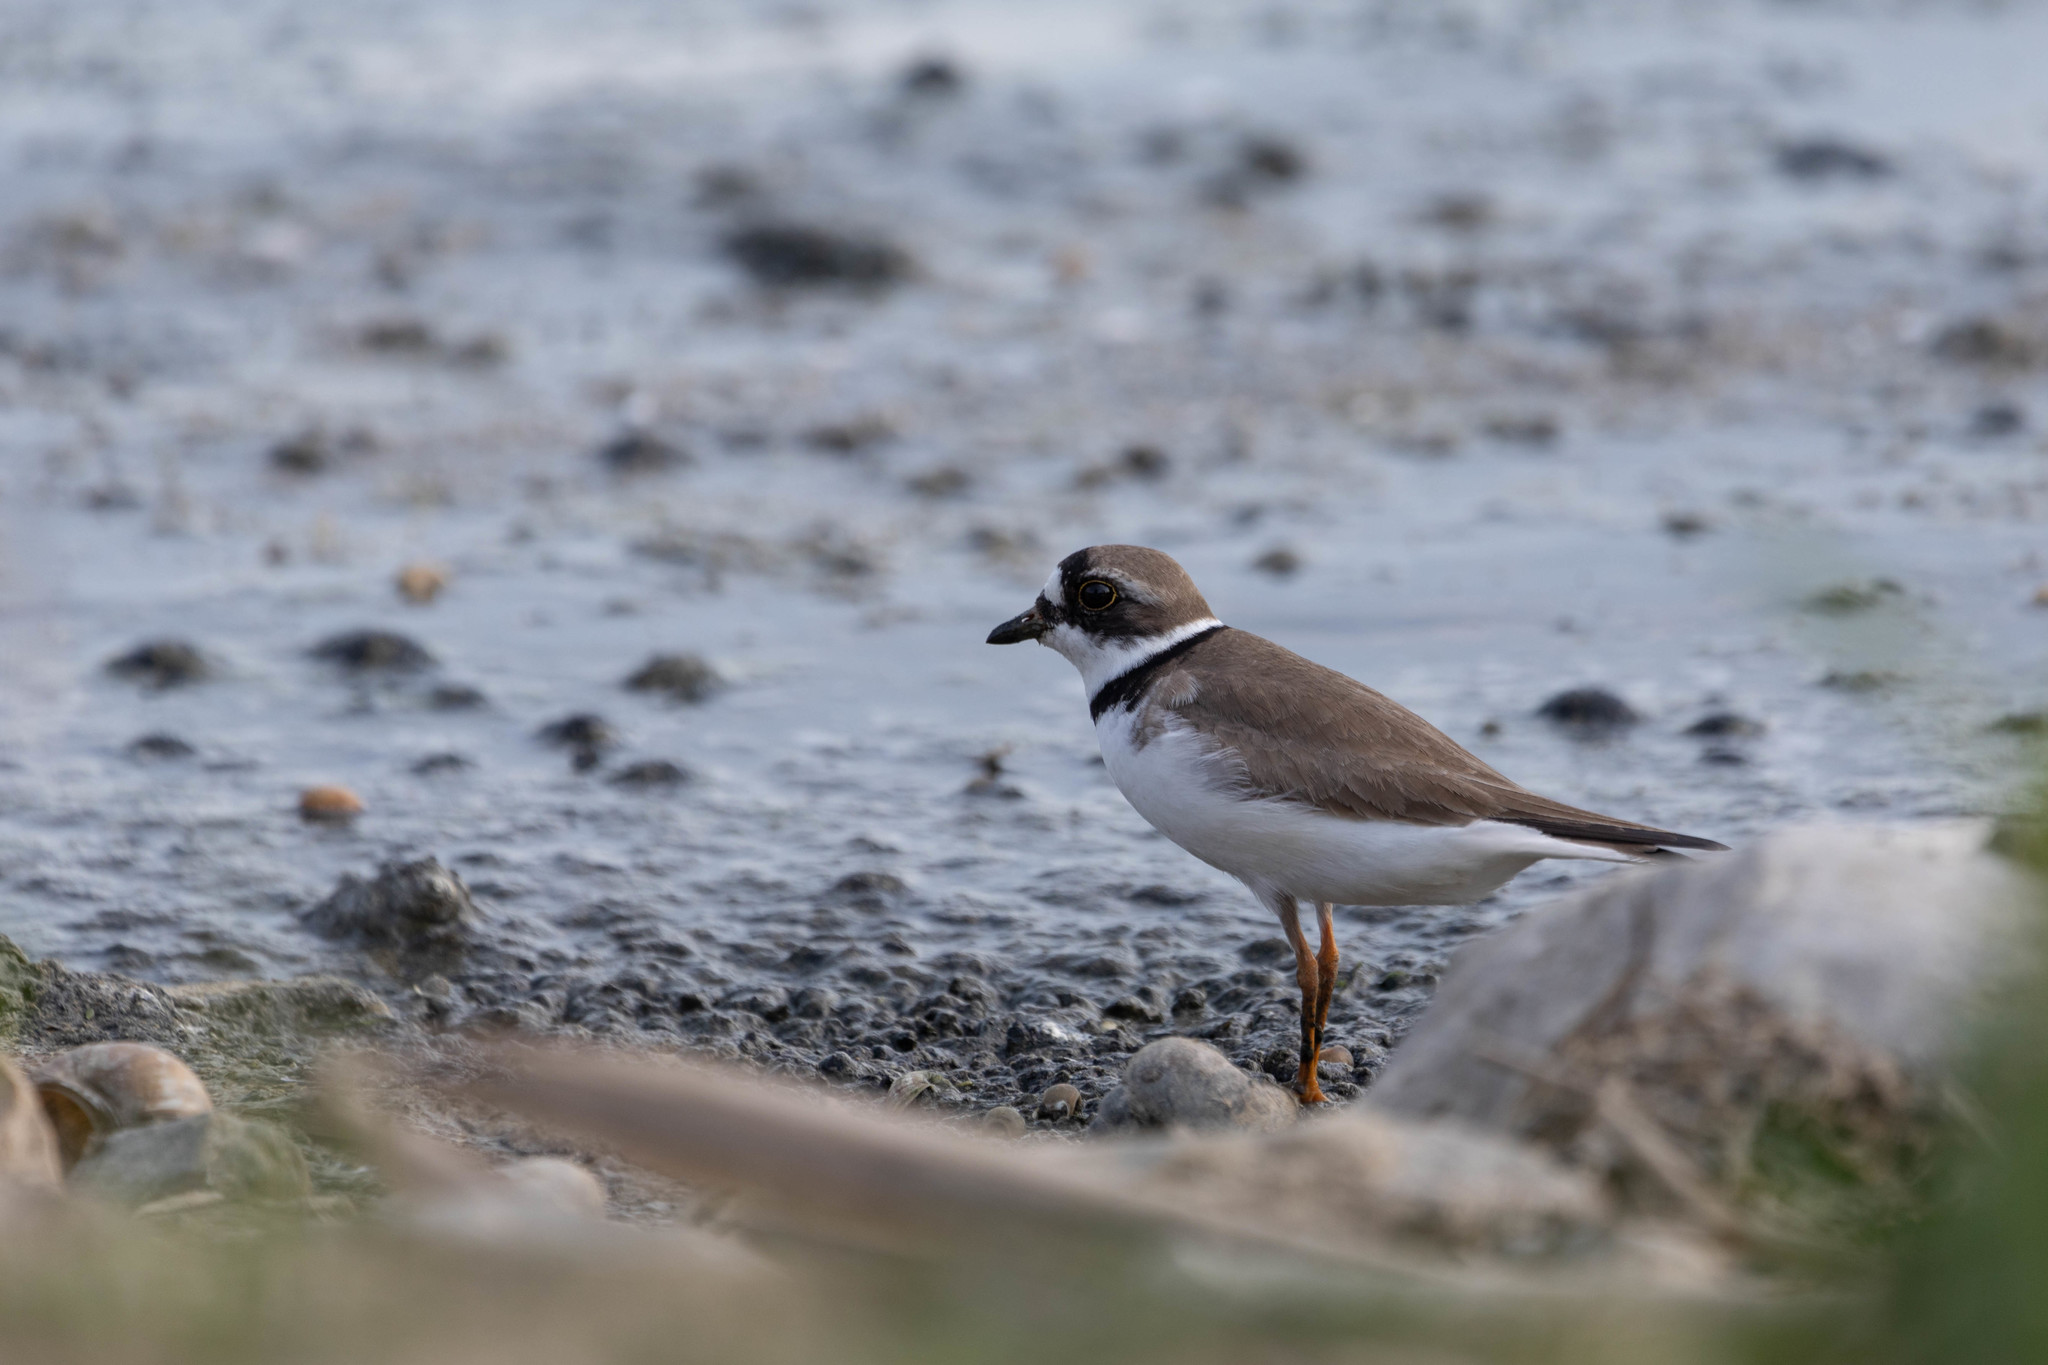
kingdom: Animalia
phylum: Chordata
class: Aves
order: Charadriiformes
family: Charadriidae
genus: Charadrius
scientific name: Charadrius semipalmatus
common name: Semipalmated plover
